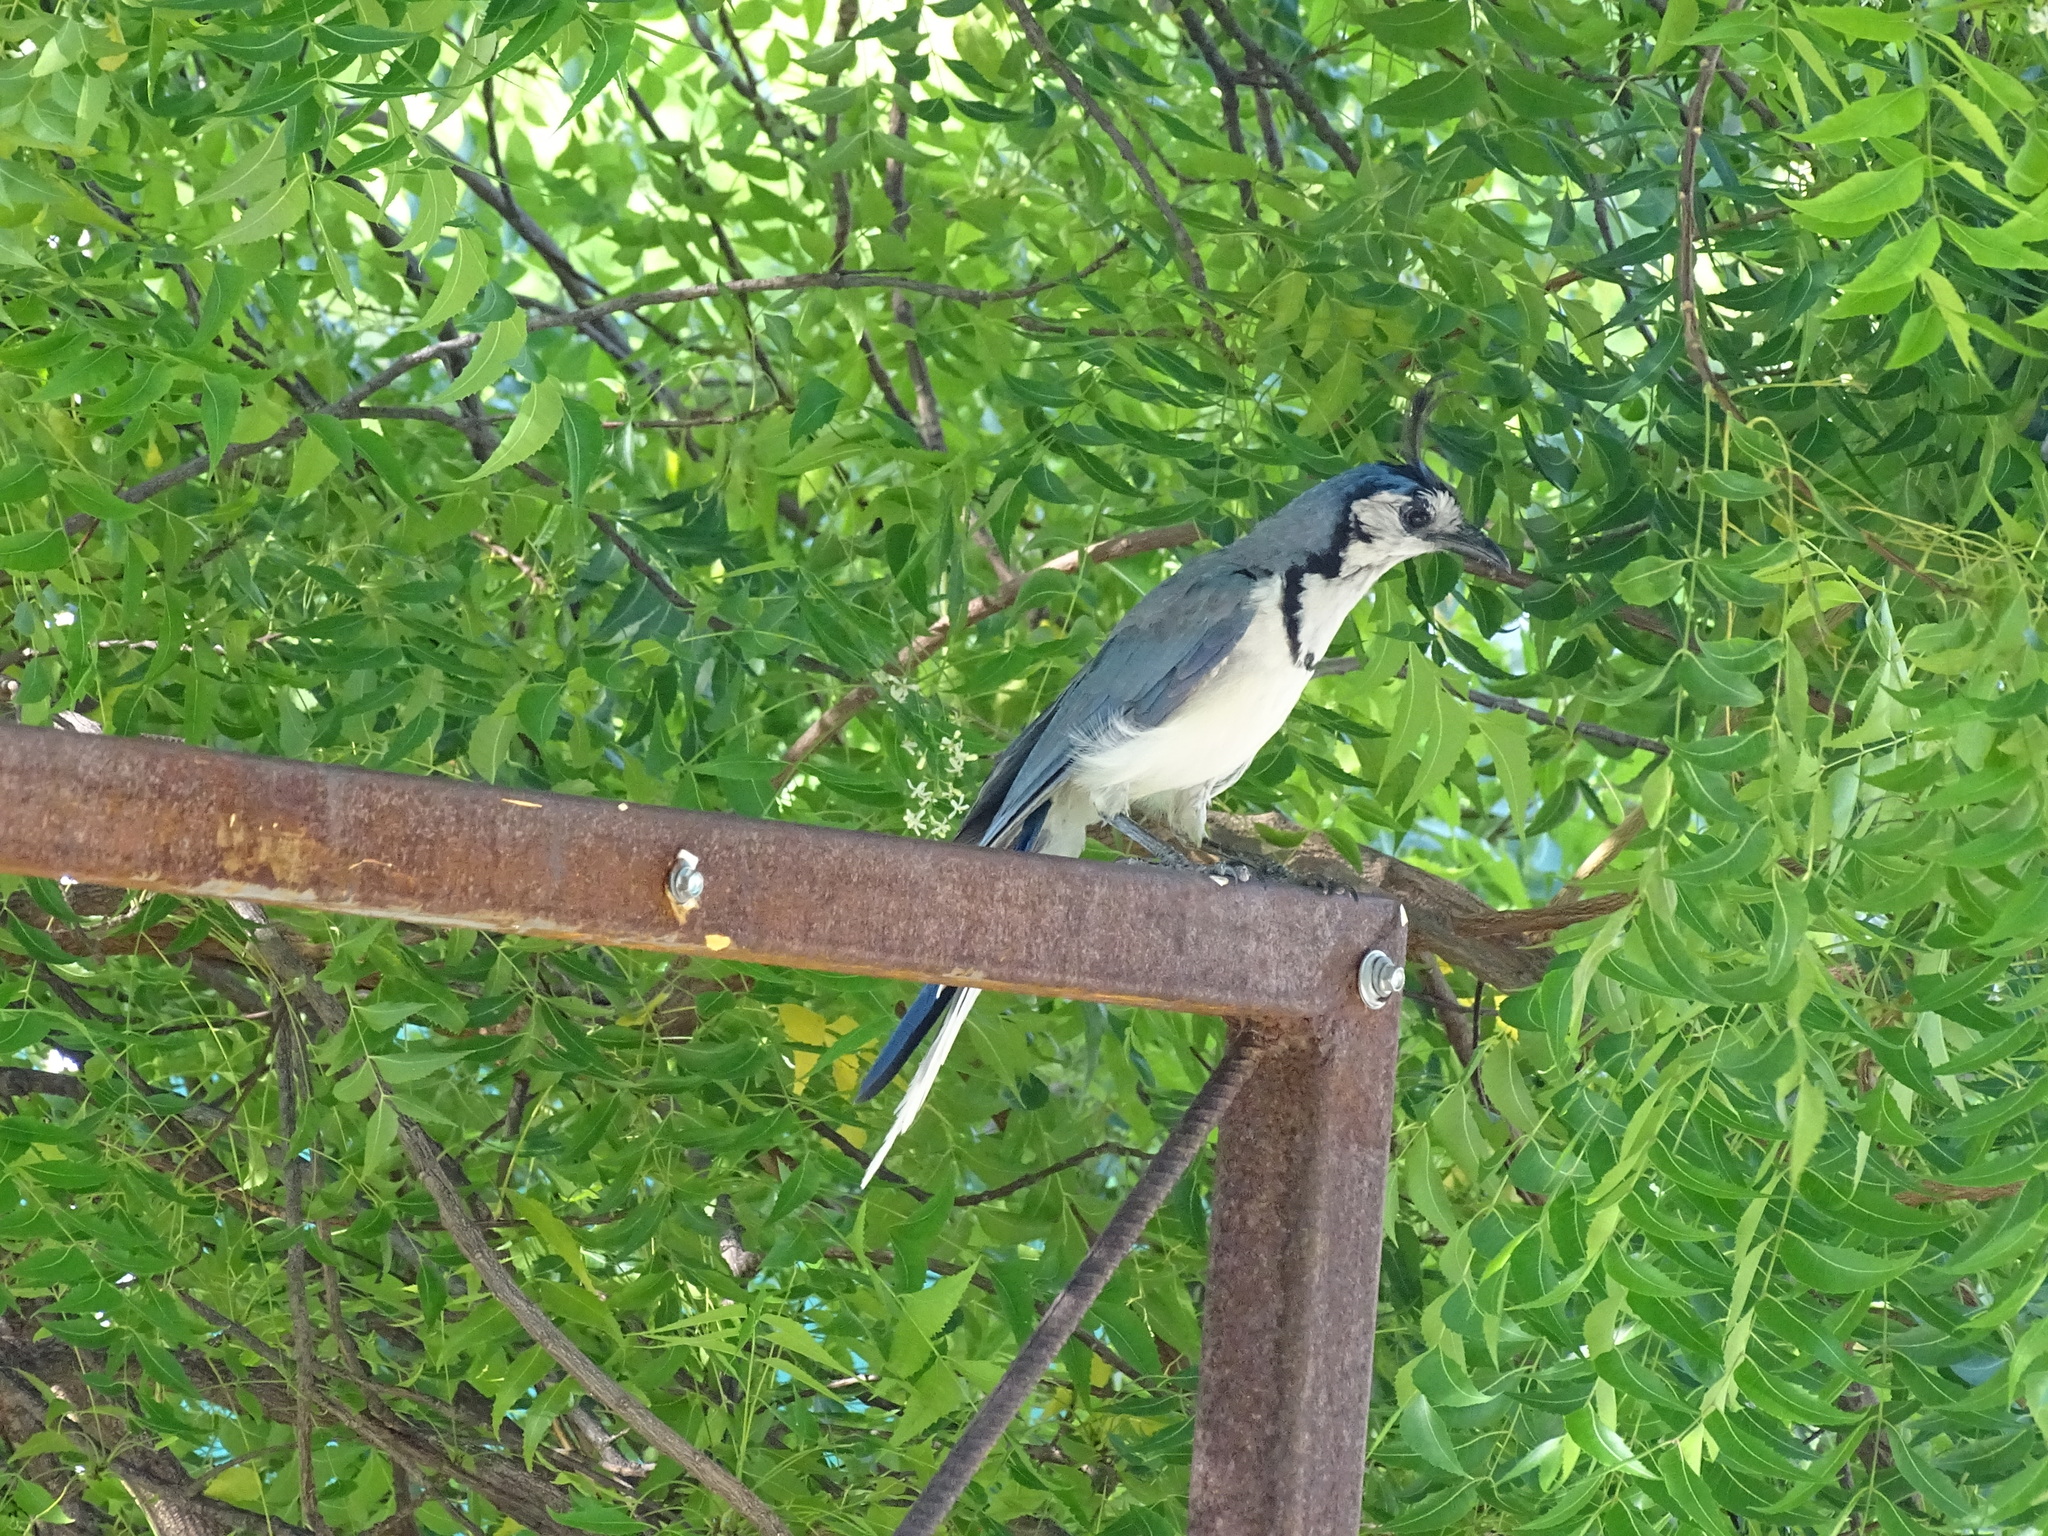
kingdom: Animalia
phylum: Chordata
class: Aves
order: Passeriformes
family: Corvidae
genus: Calocitta
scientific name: Calocitta formosa
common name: White-throated magpie-jay
